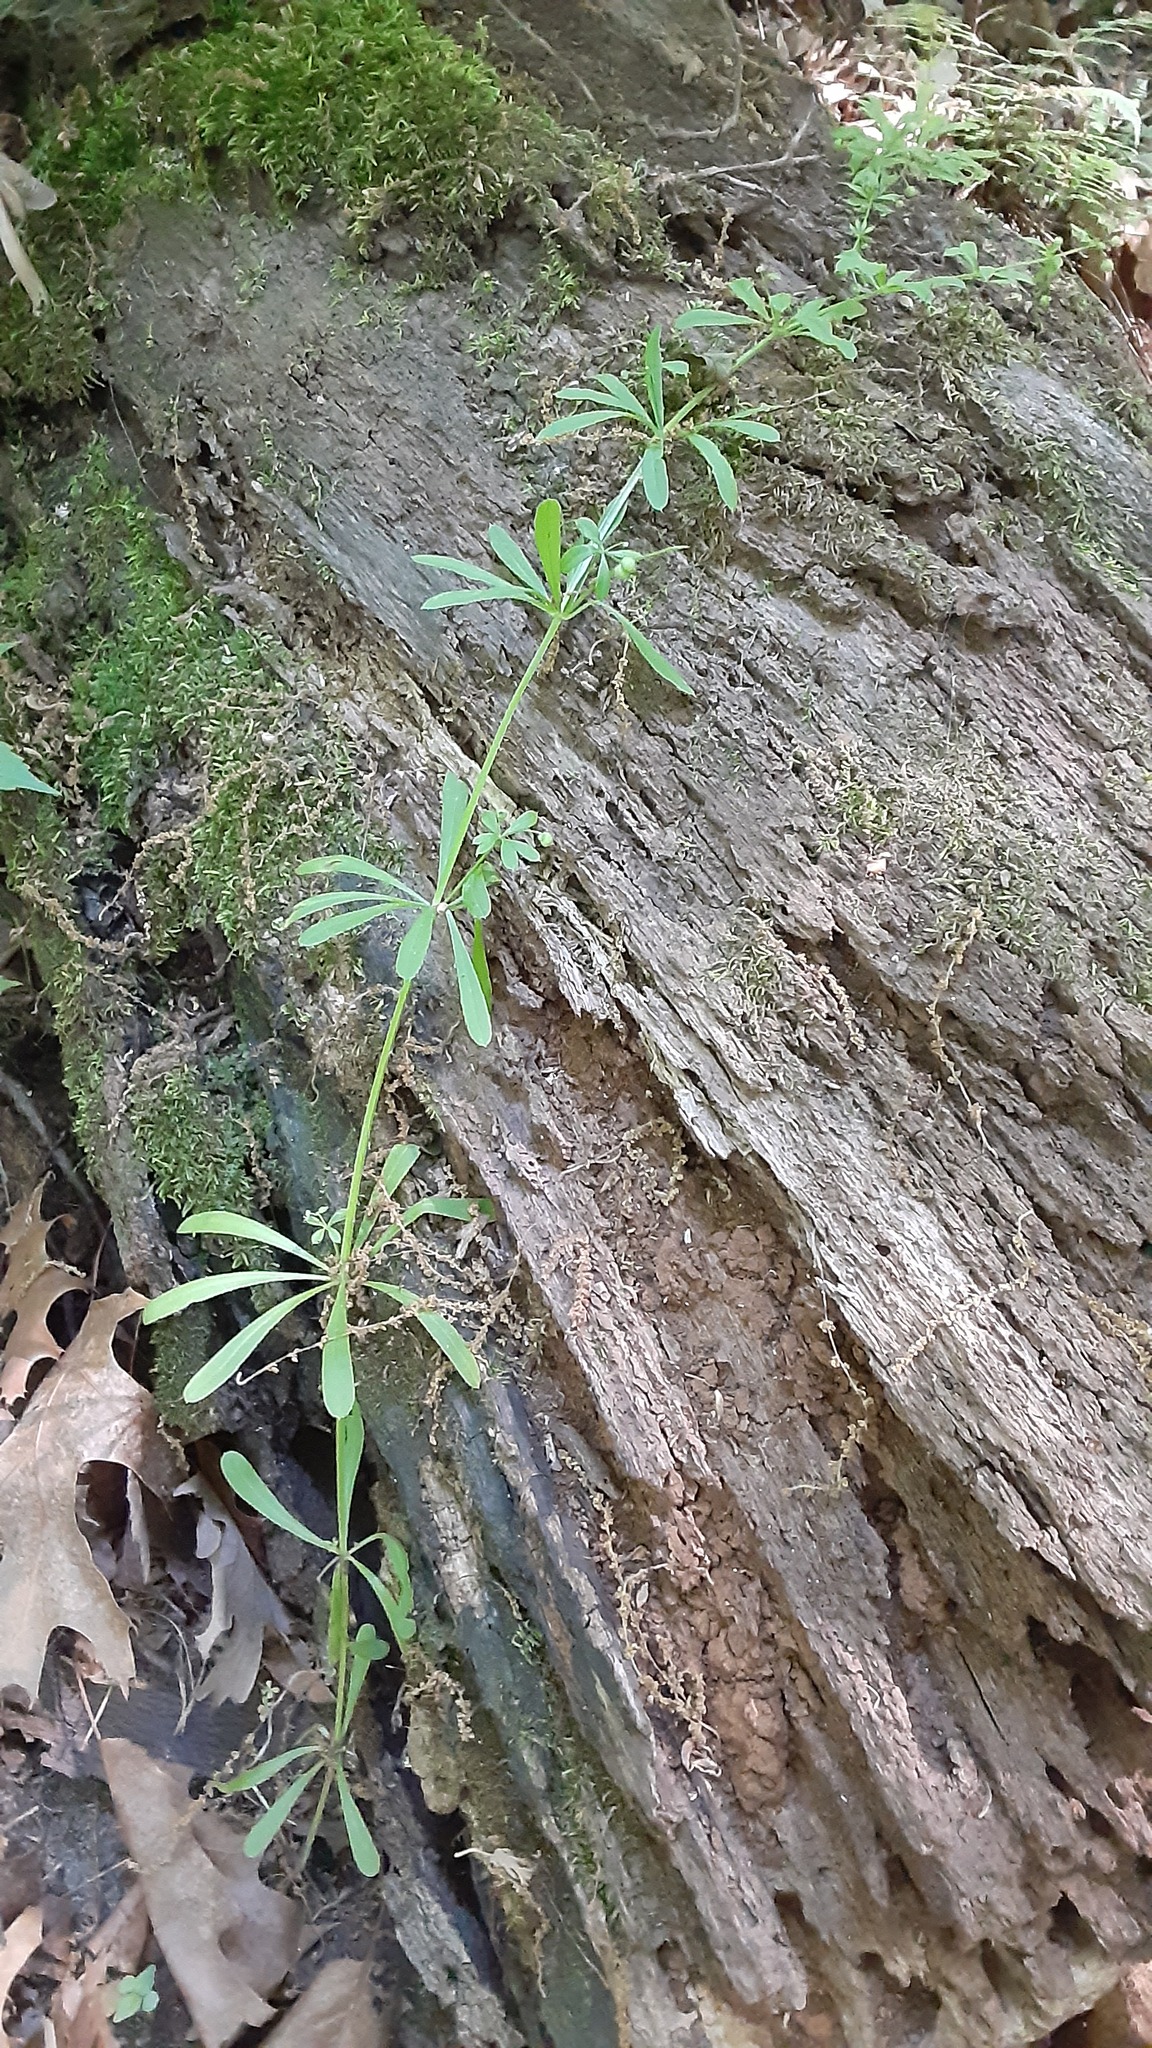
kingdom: Plantae
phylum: Tracheophyta
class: Magnoliopsida
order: Gentianales
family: Rubiaceae
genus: Galium
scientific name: Galium aparine
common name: Cleavers
